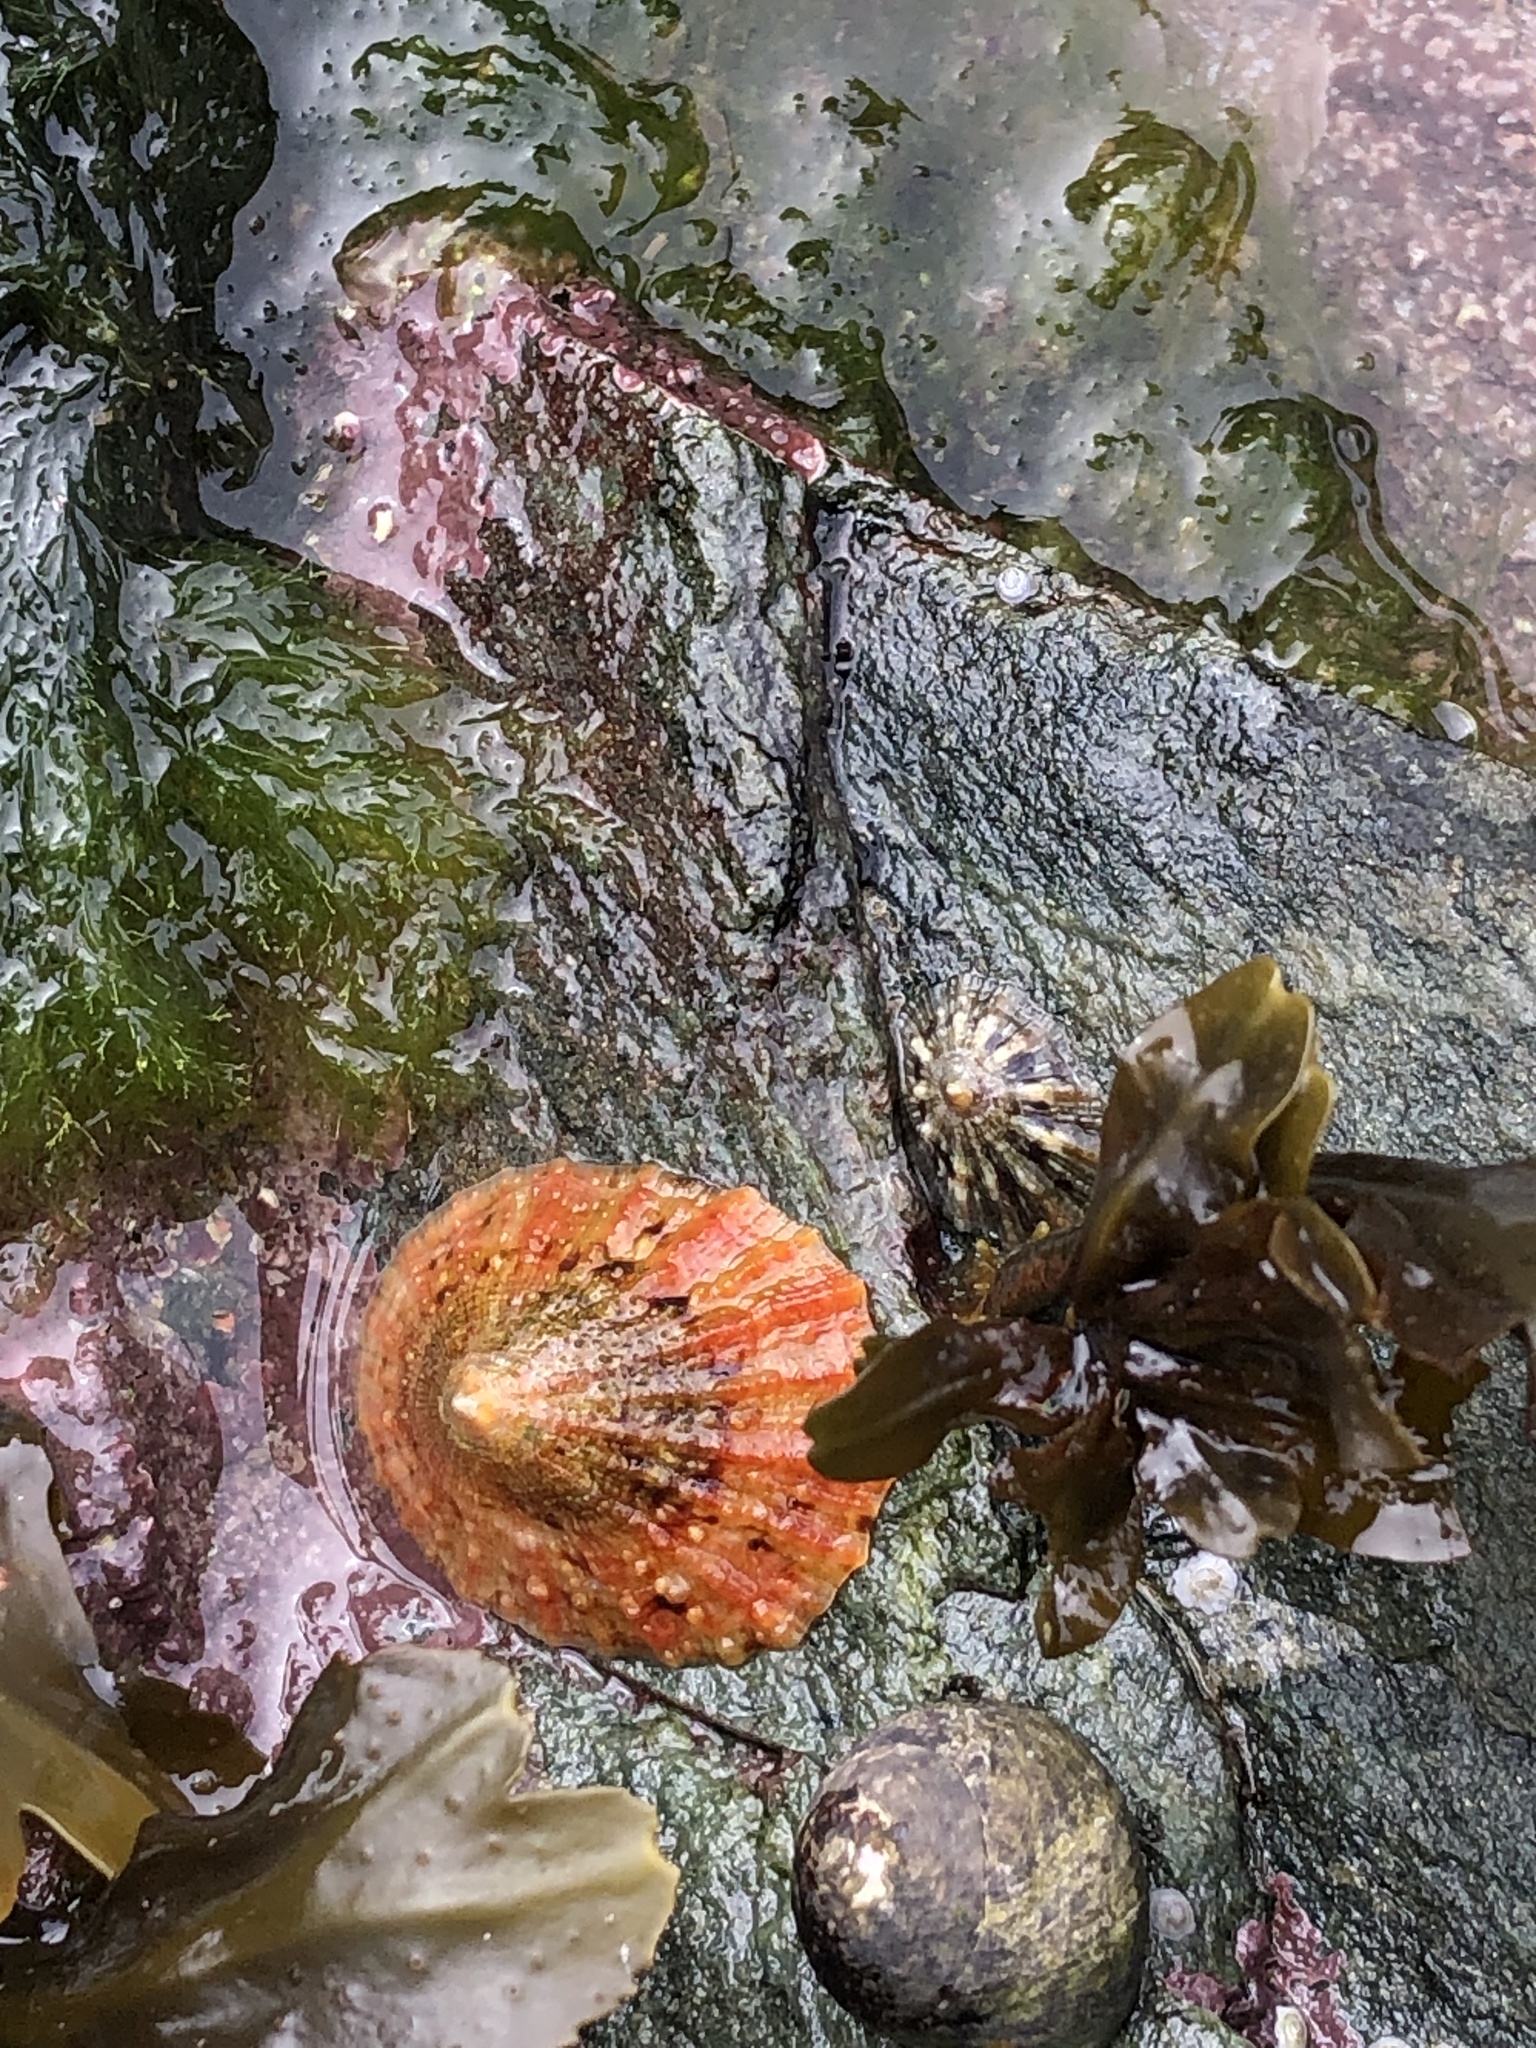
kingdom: Animalia
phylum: Mollusca
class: Gastropoda
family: Patellidae
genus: Patella
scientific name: Patella
